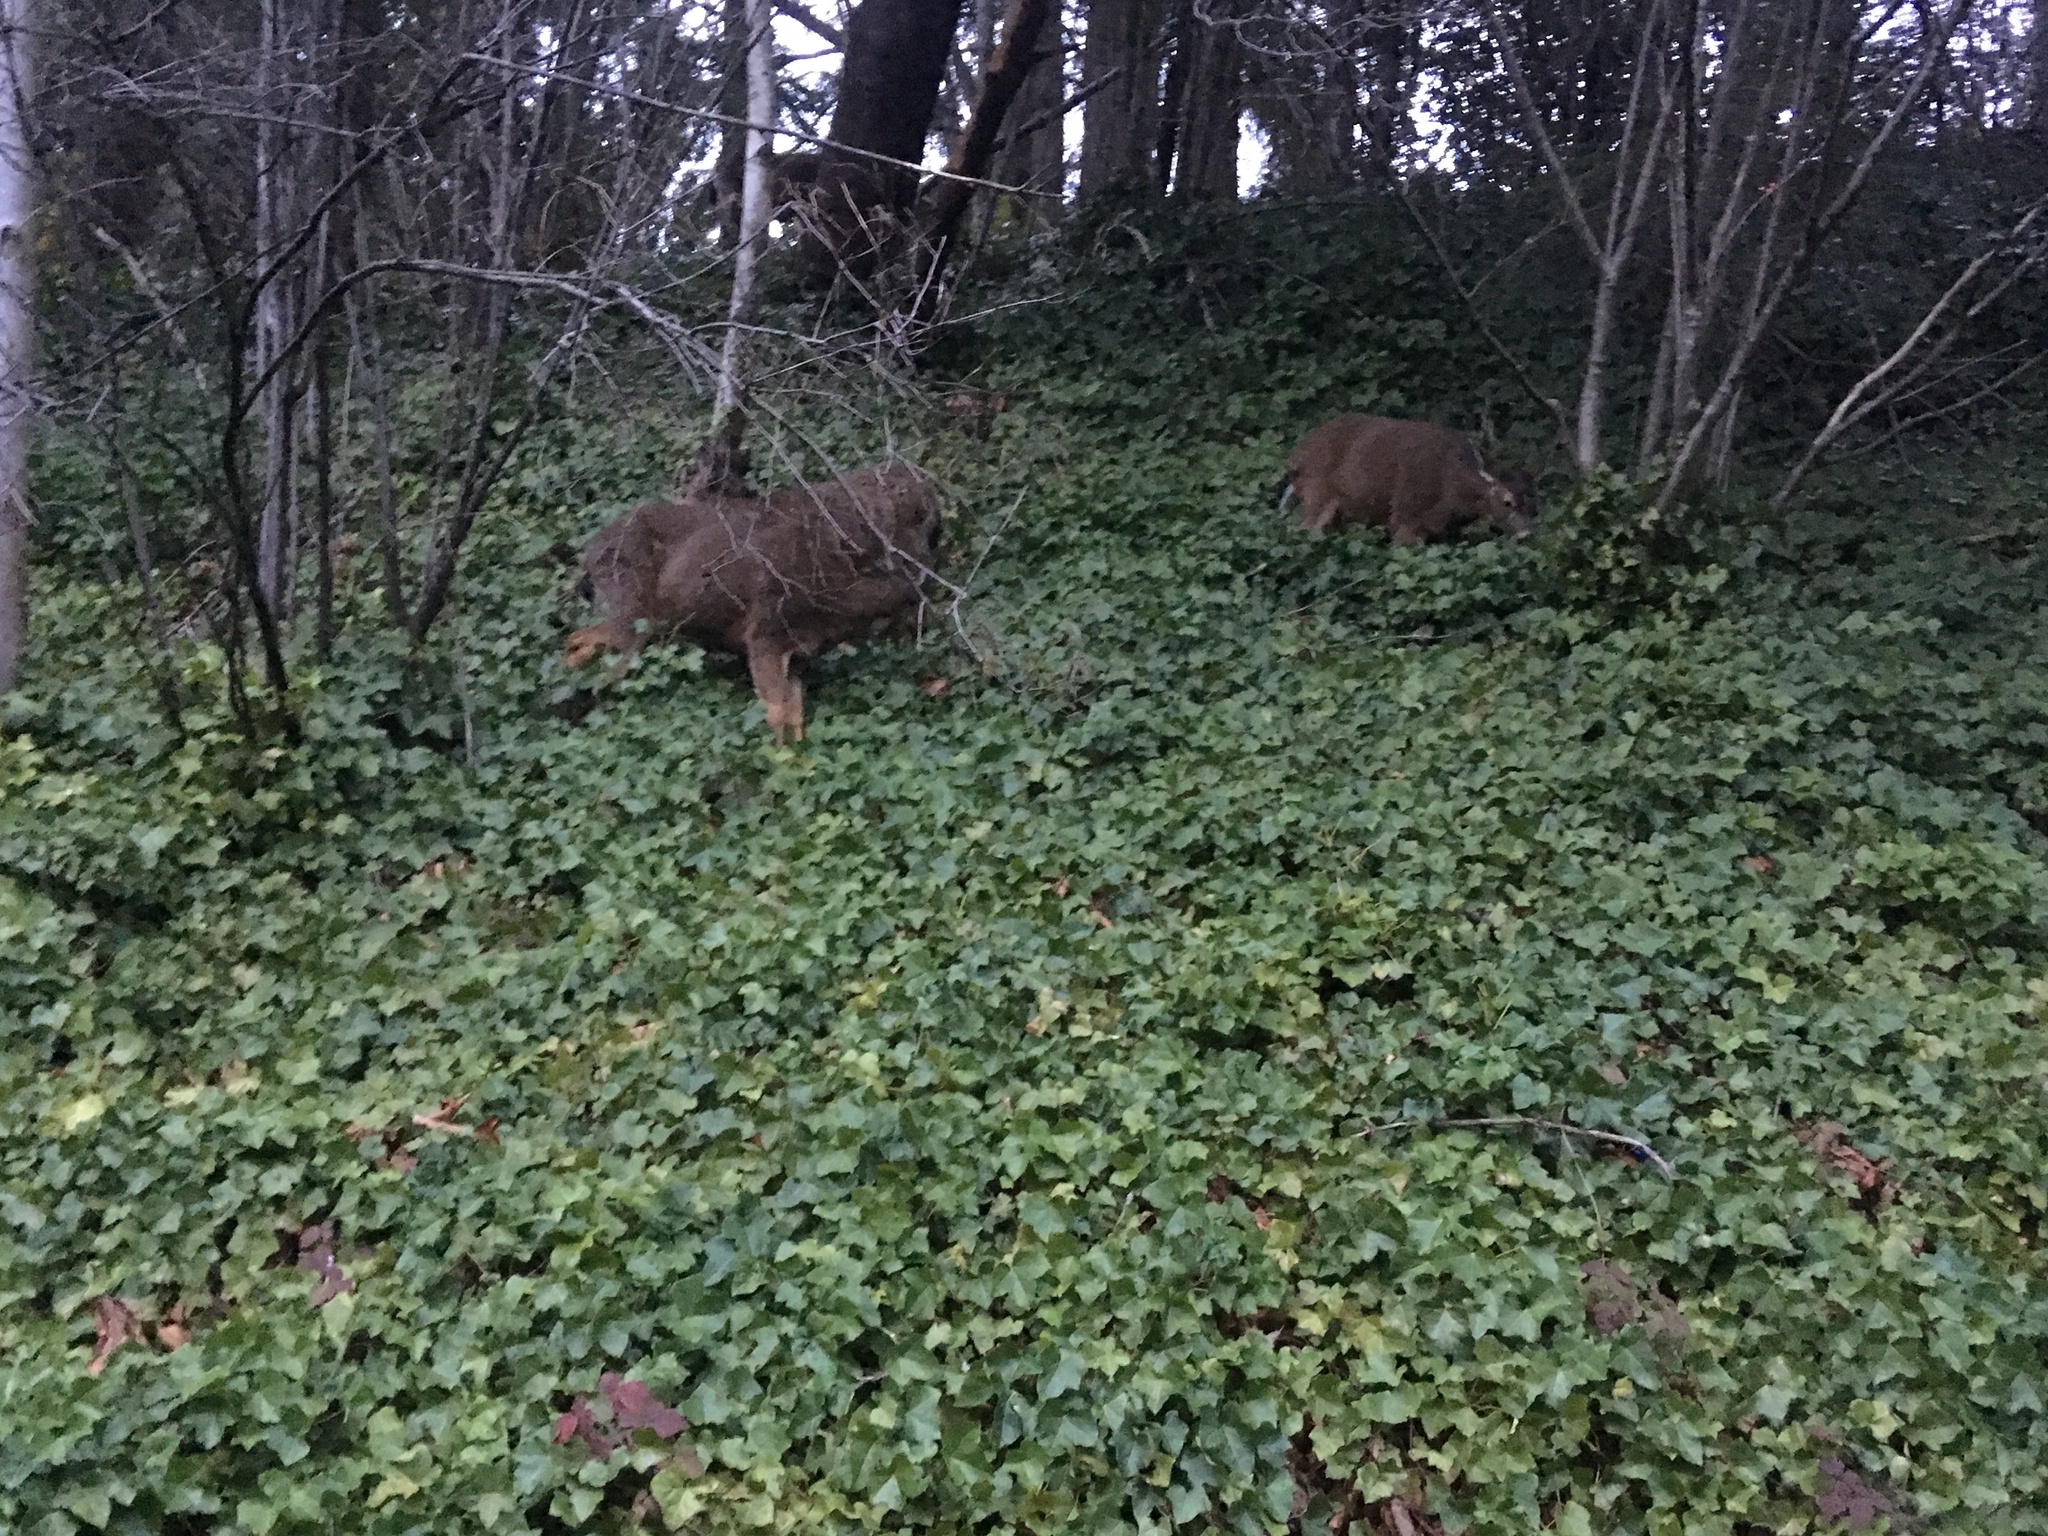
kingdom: Animalia
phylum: Chordata
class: Mammalia
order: Artiodactyla
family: Cervidae
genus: Odocoileus
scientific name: Odocoileus hemionus
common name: Mule deer
